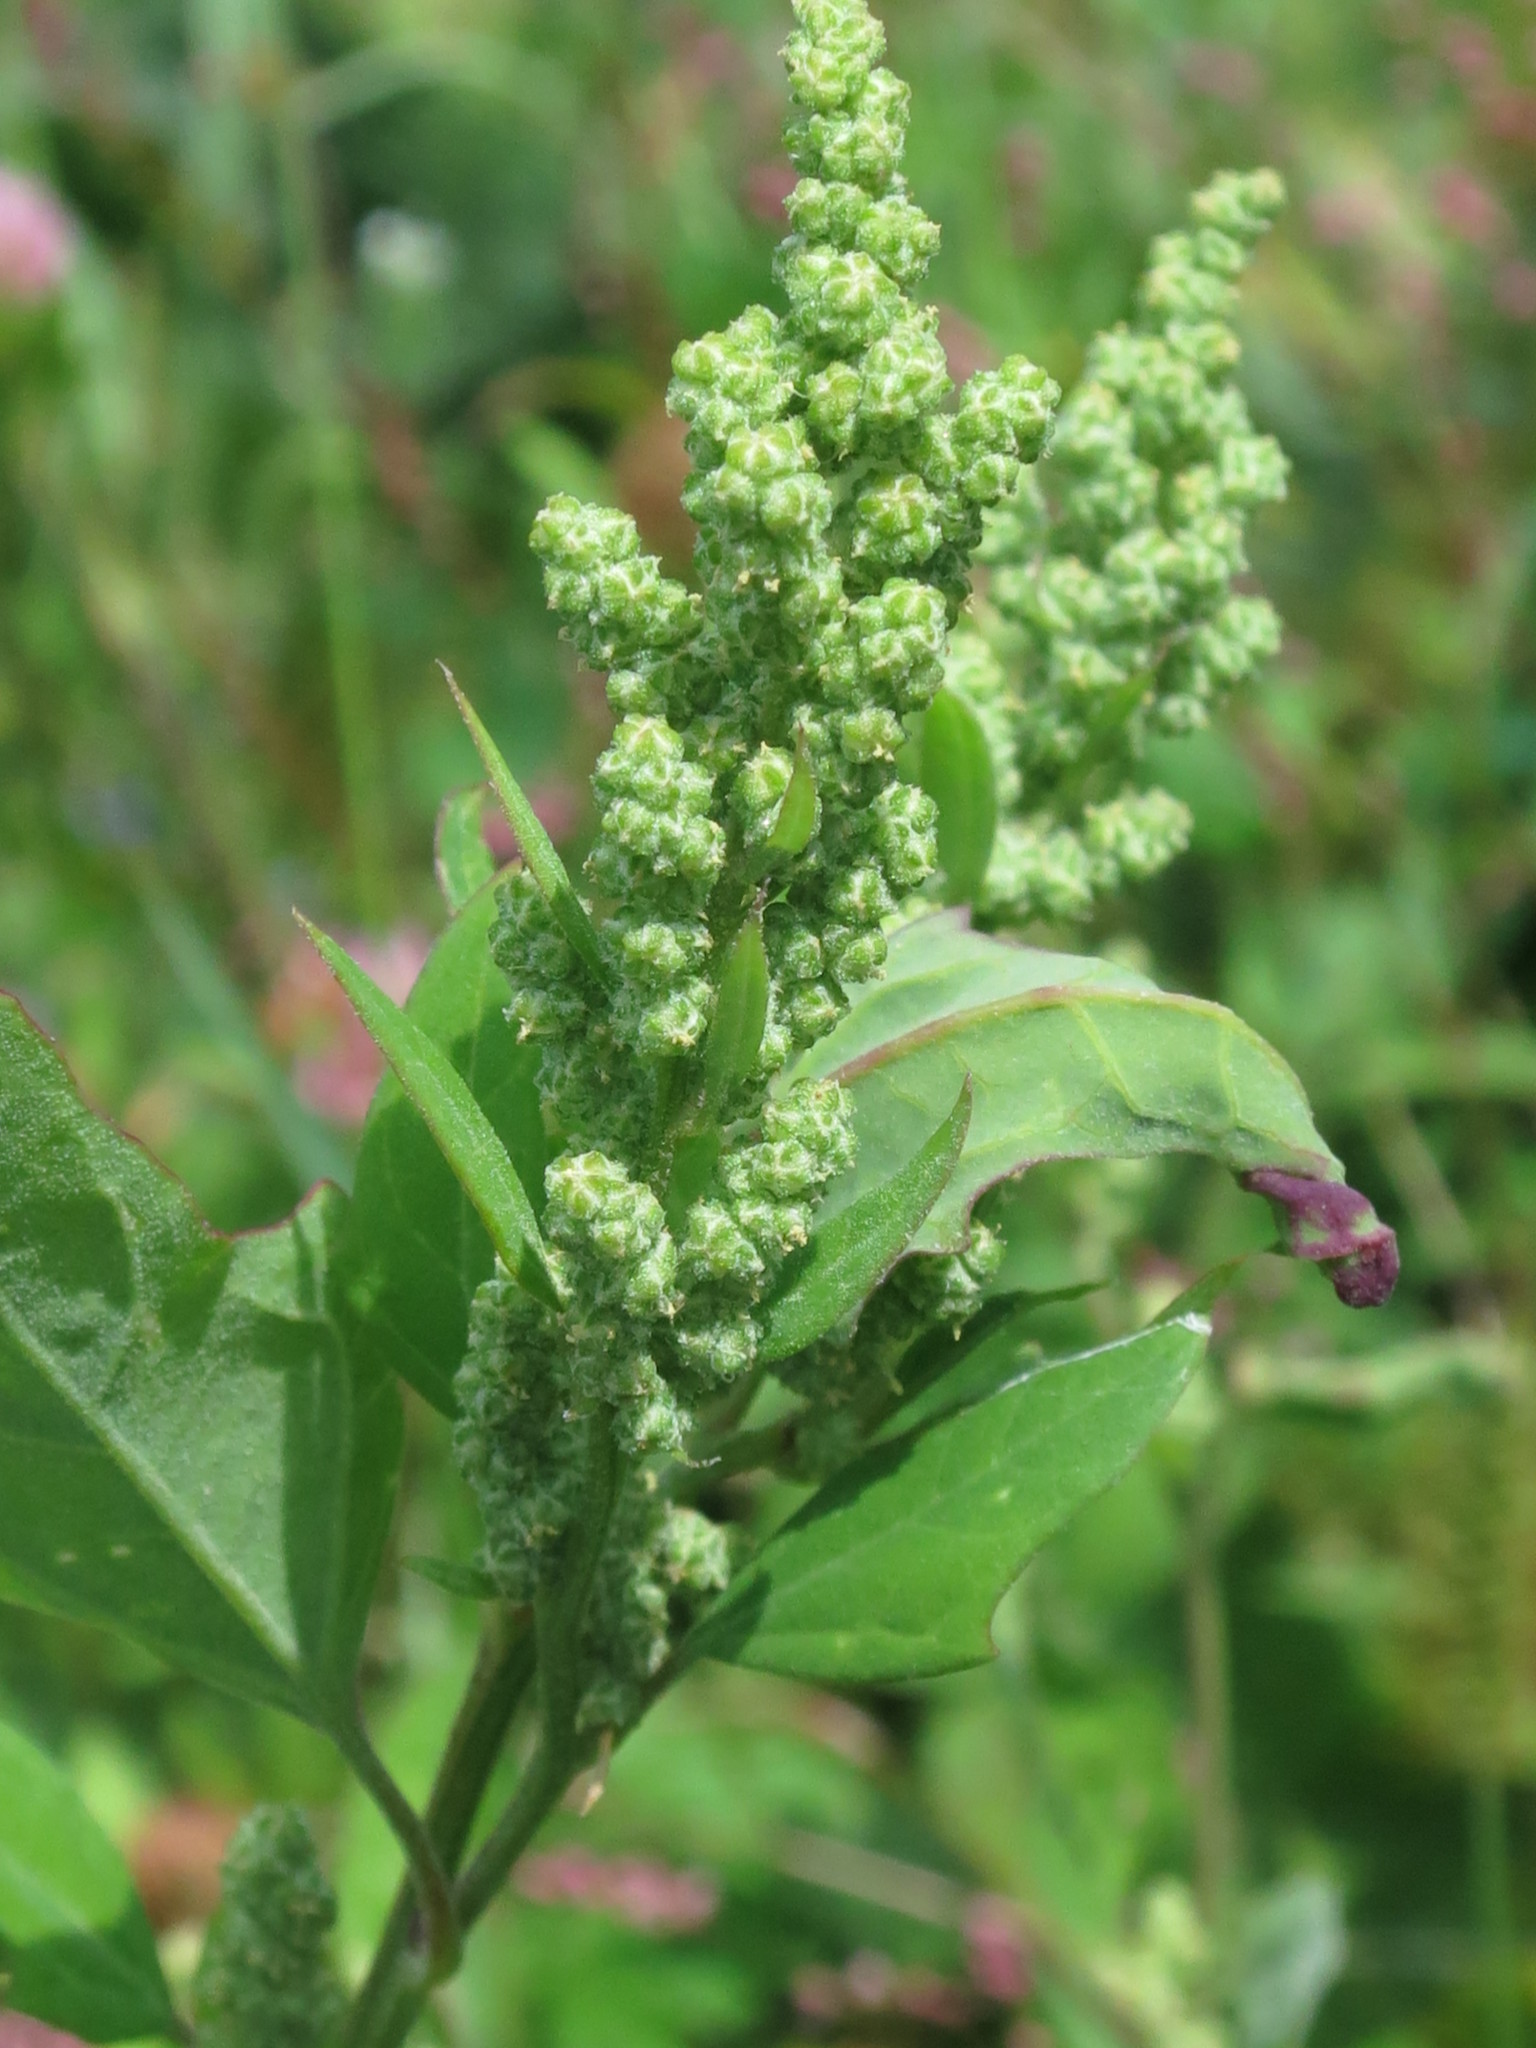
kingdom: Plantae
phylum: Tracheophyta
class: Magnoliopsida
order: Caryophyllales
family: Amaranthaceae
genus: Chenopodium
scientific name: Chenopodium album
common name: Fat-hen
